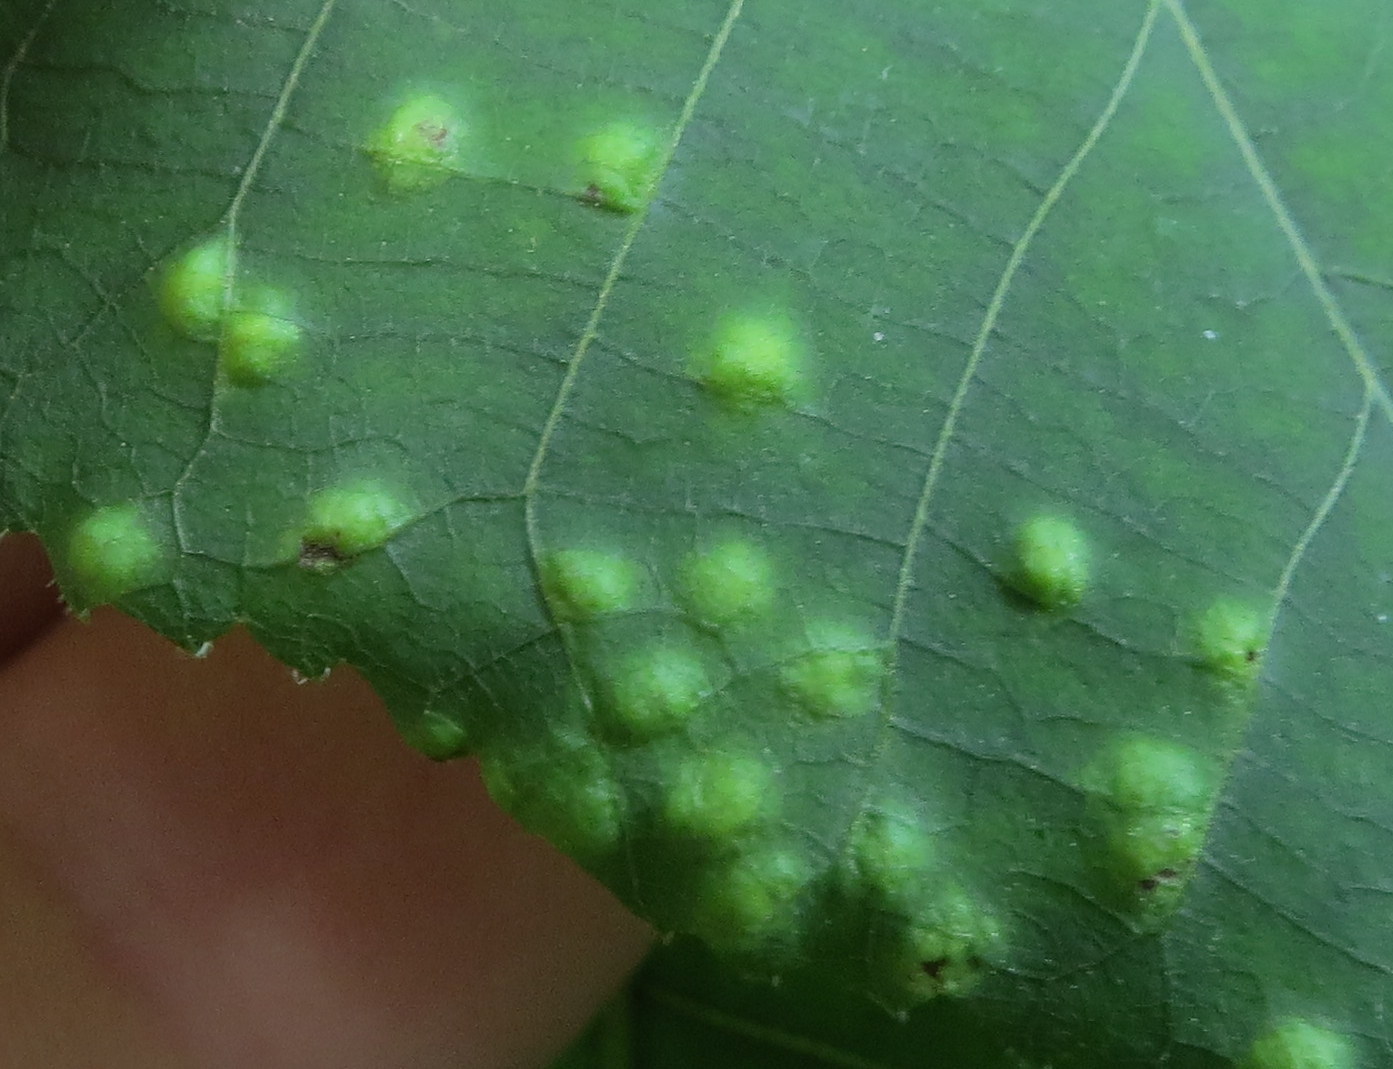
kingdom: Fungi
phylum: Basidiomycota
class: Exobasidiomycetes
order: Microstromatales
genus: Pseudomicrostroma
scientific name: Pseudomicrostroma juglandis
